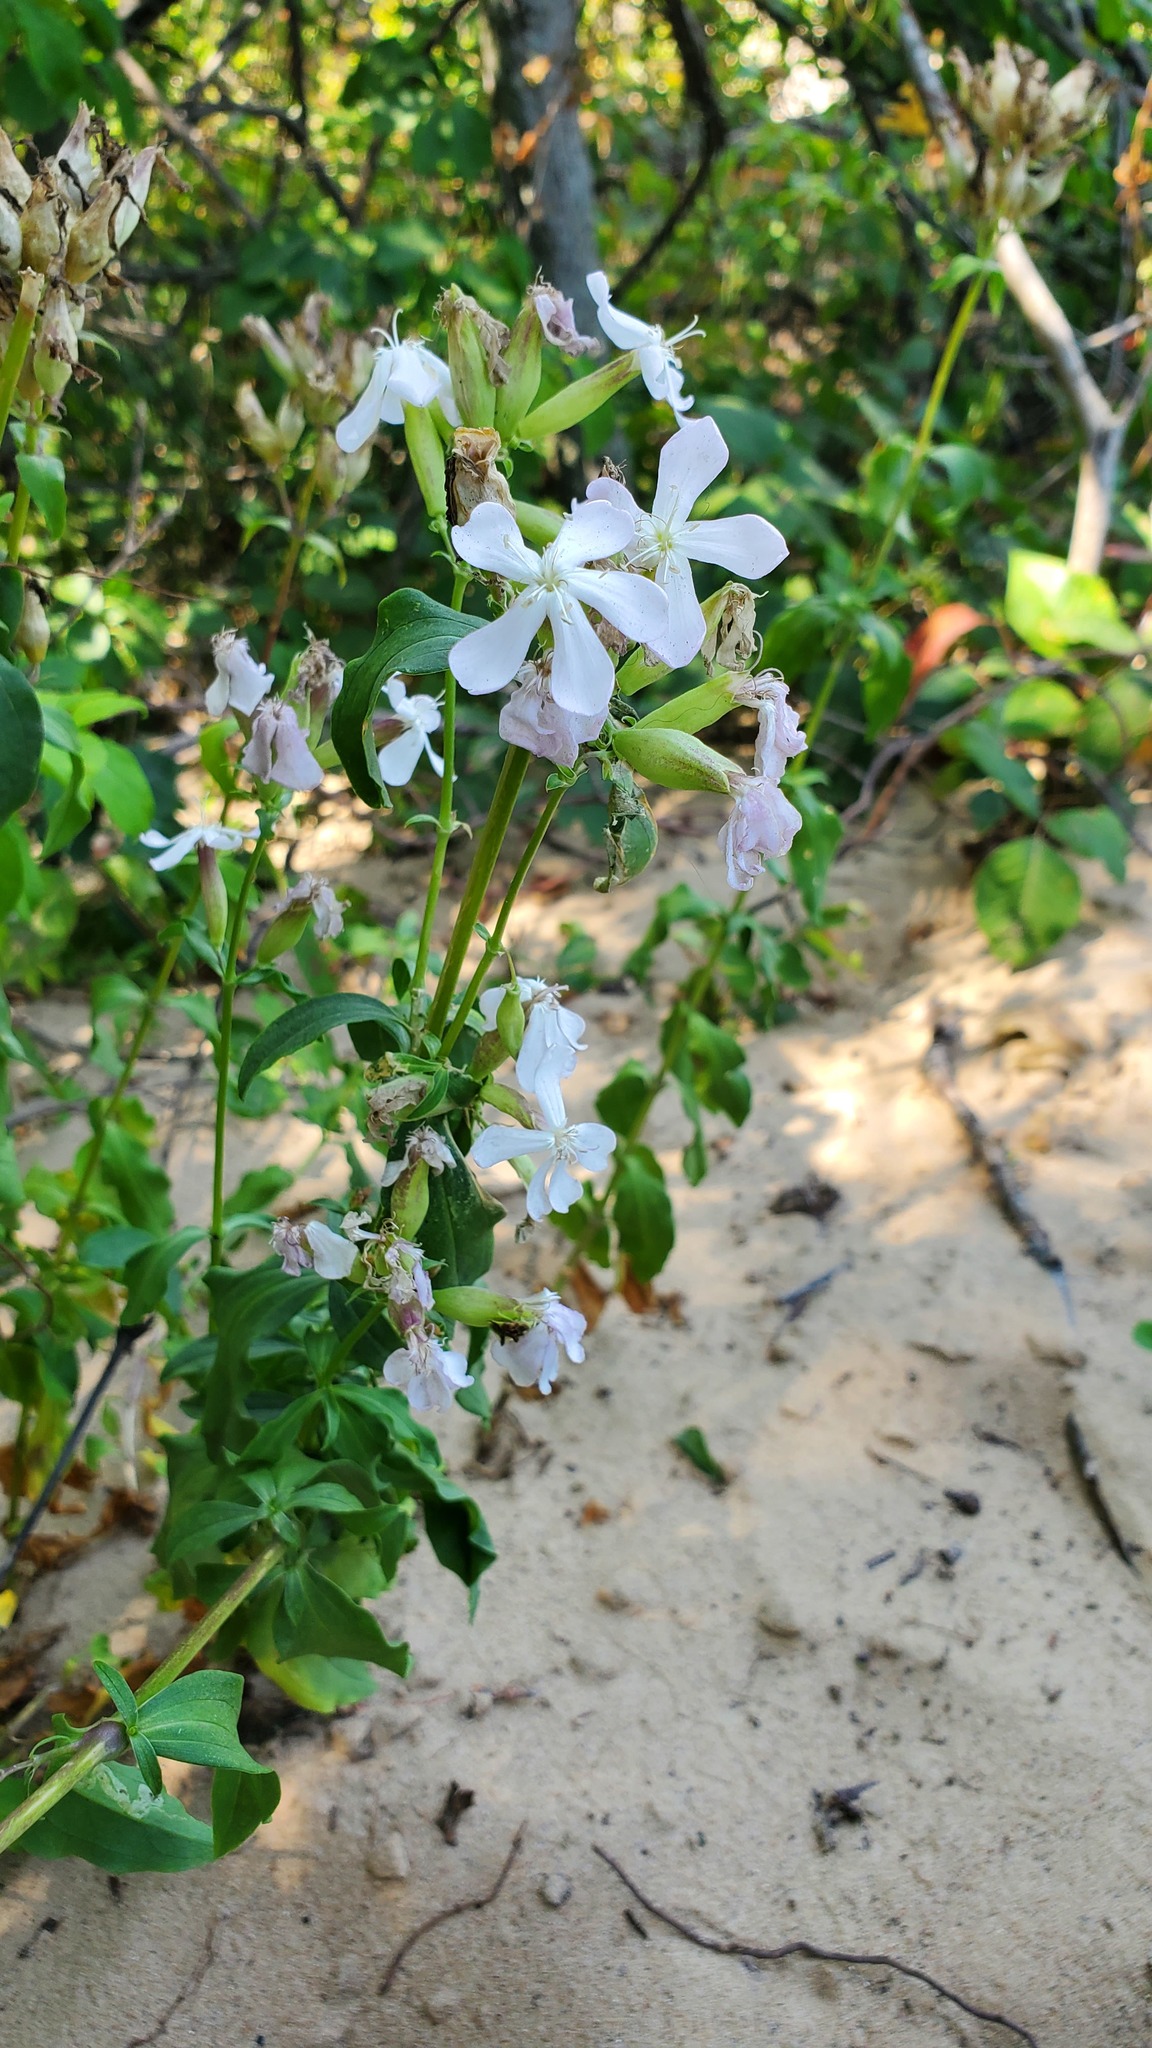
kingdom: Plantae
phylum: Tracheophyta
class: Magnoliopsida
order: Caryophyllales
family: Caryophyllaceae
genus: Saponaria
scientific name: Saponaria officinalis
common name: Soapwort
